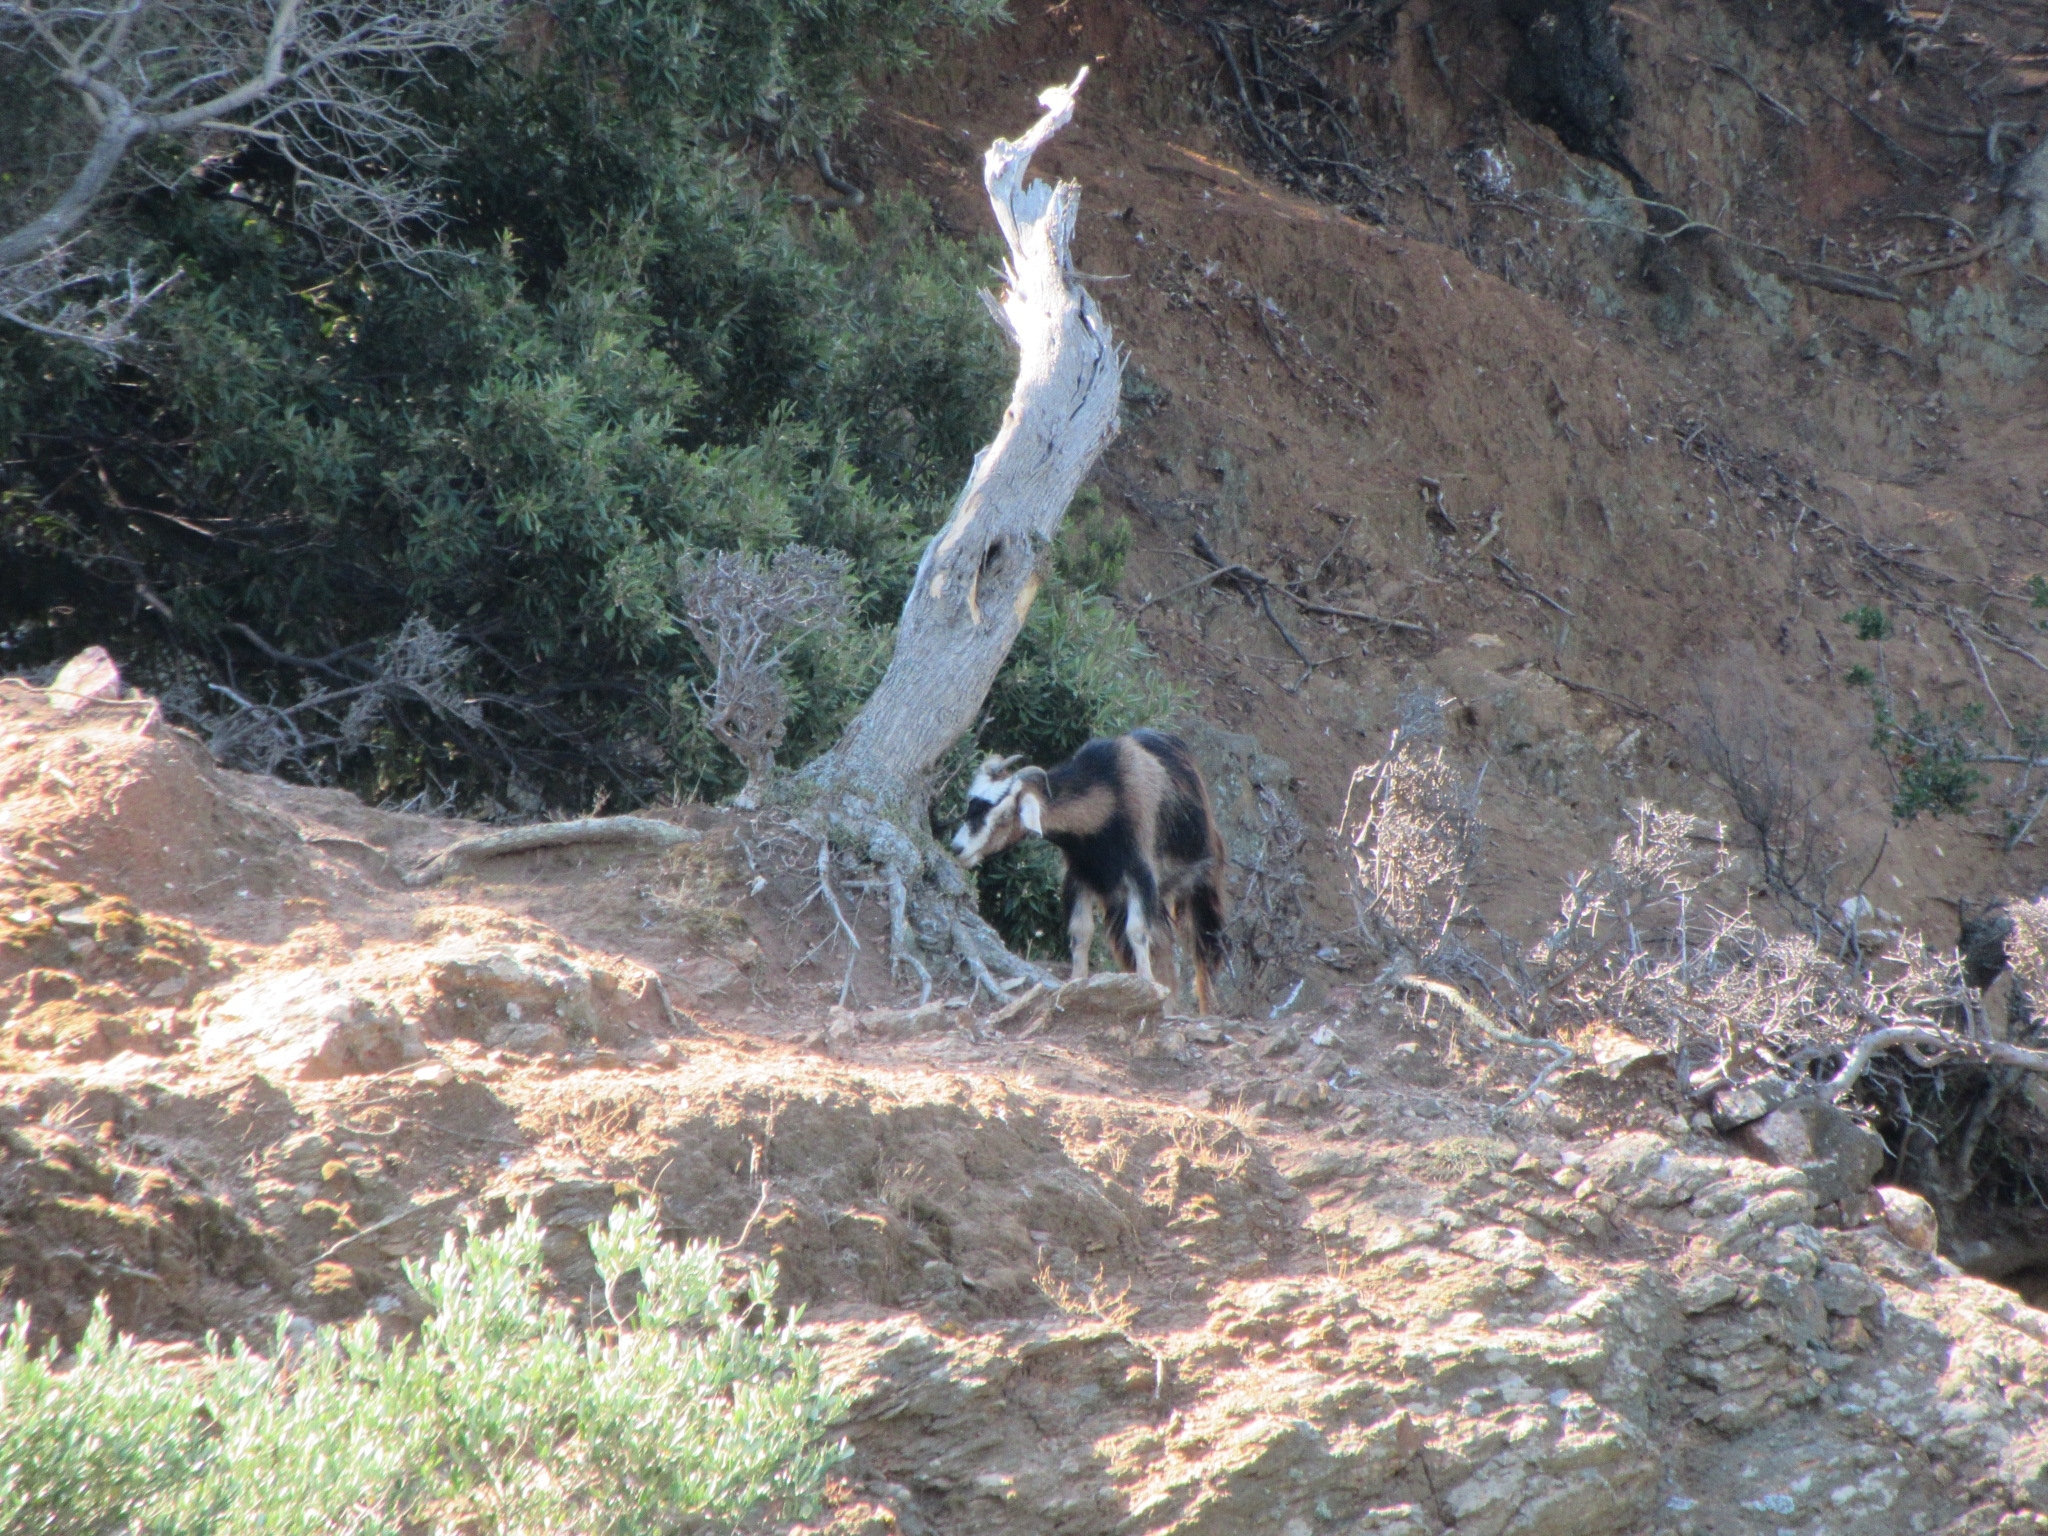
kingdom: Animalia
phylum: Chordata
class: Mammalia
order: Artiodactyla
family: Bovidae
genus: Capra
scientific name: Capra hircus
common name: Domestic goat
